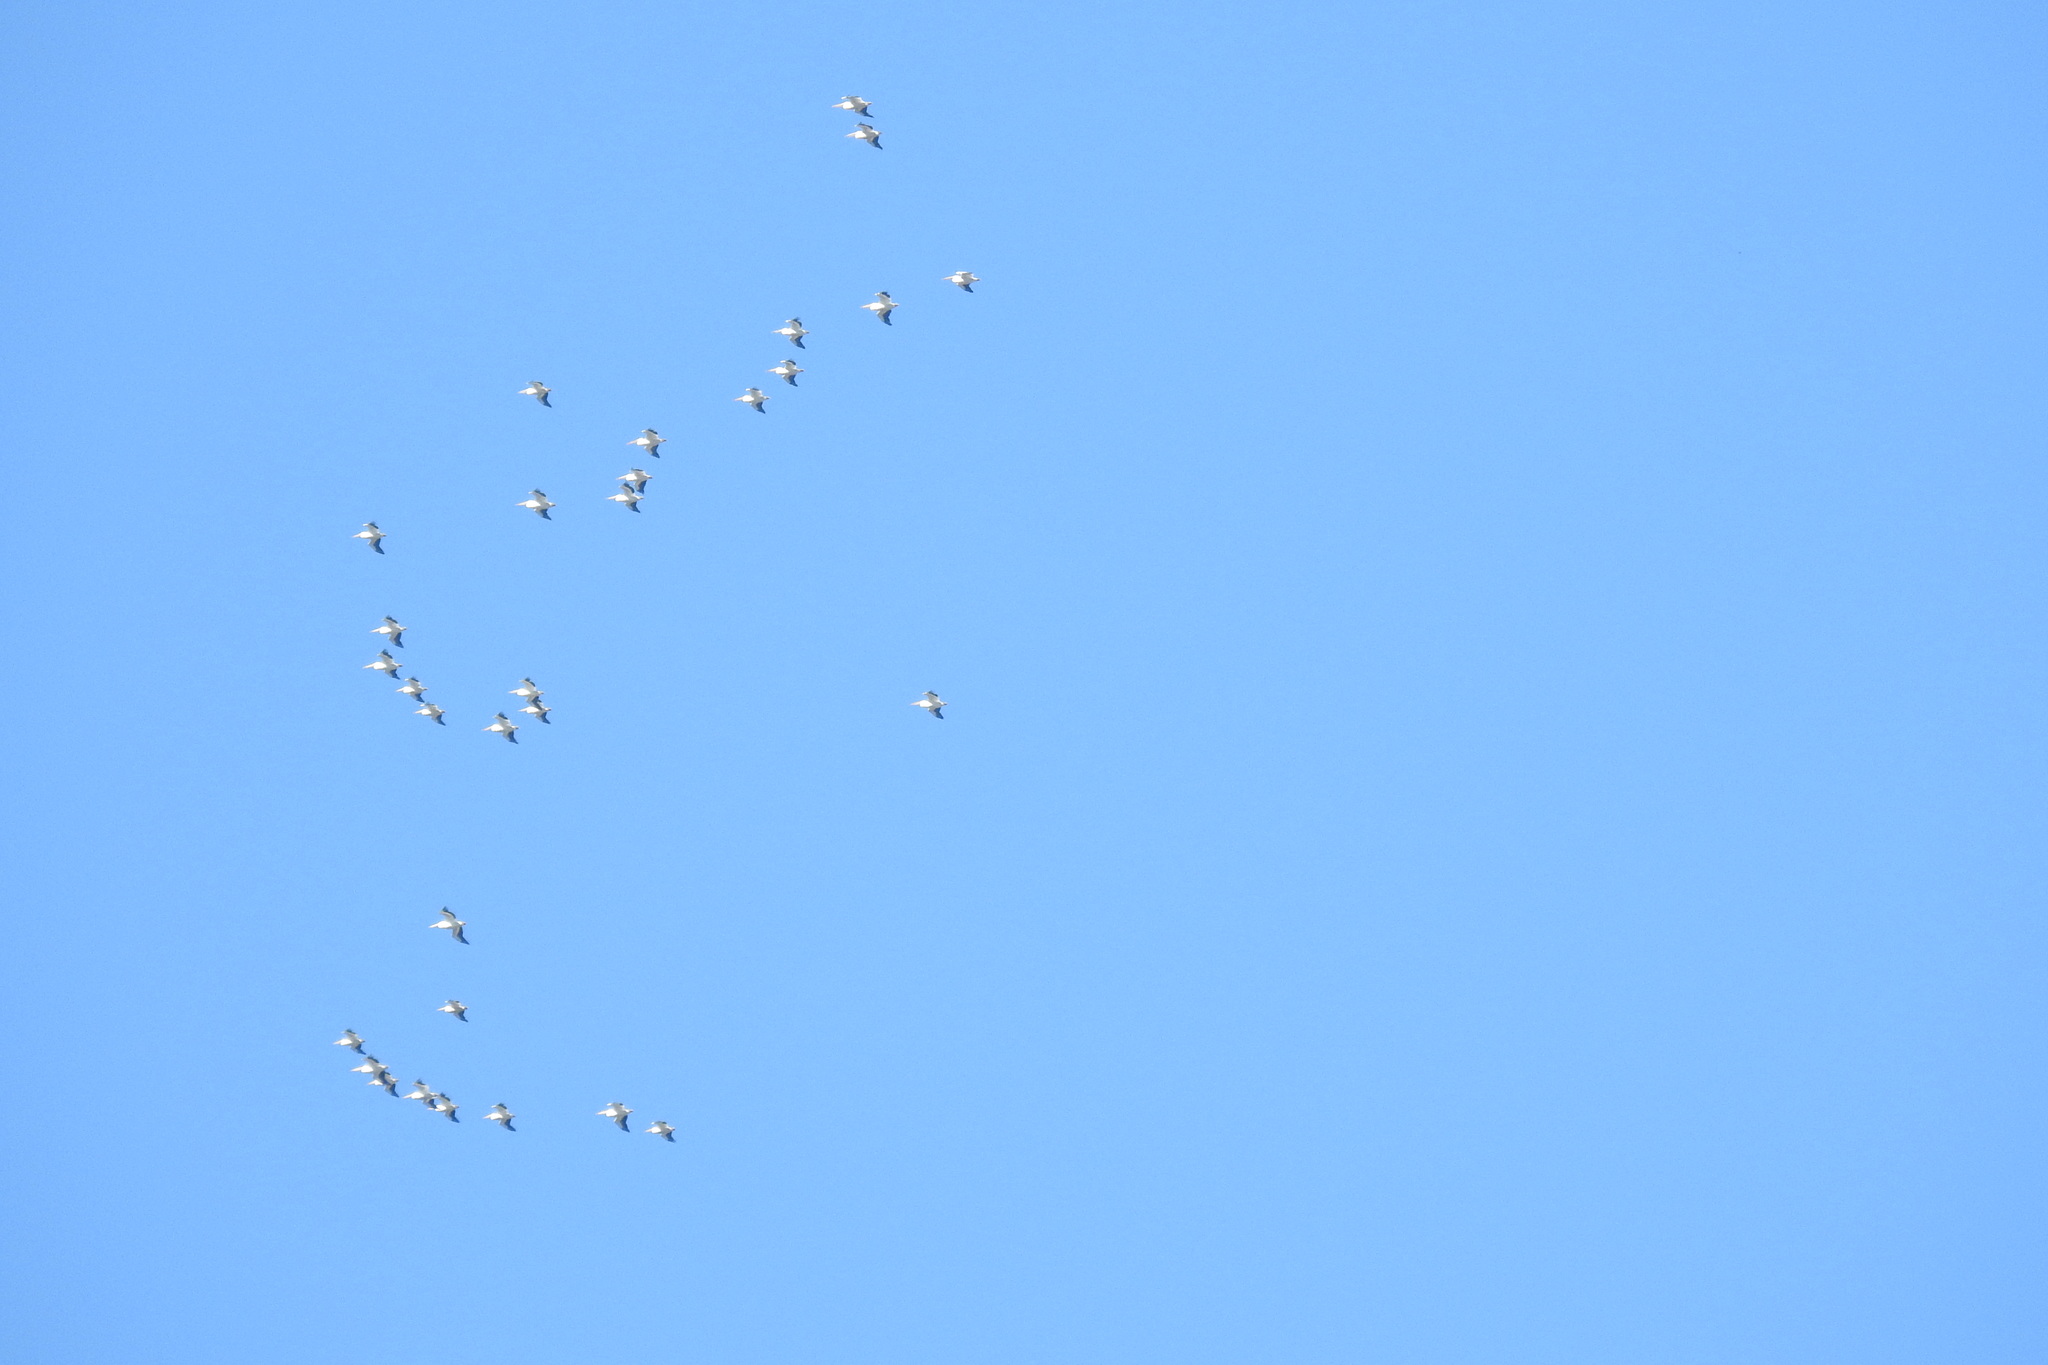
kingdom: Animalia
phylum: Chordata
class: Aves
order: Pelecaniformes
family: Pelecanidae
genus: Pelecanus
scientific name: Pelecanus erythrorhynchos
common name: American white pelican
